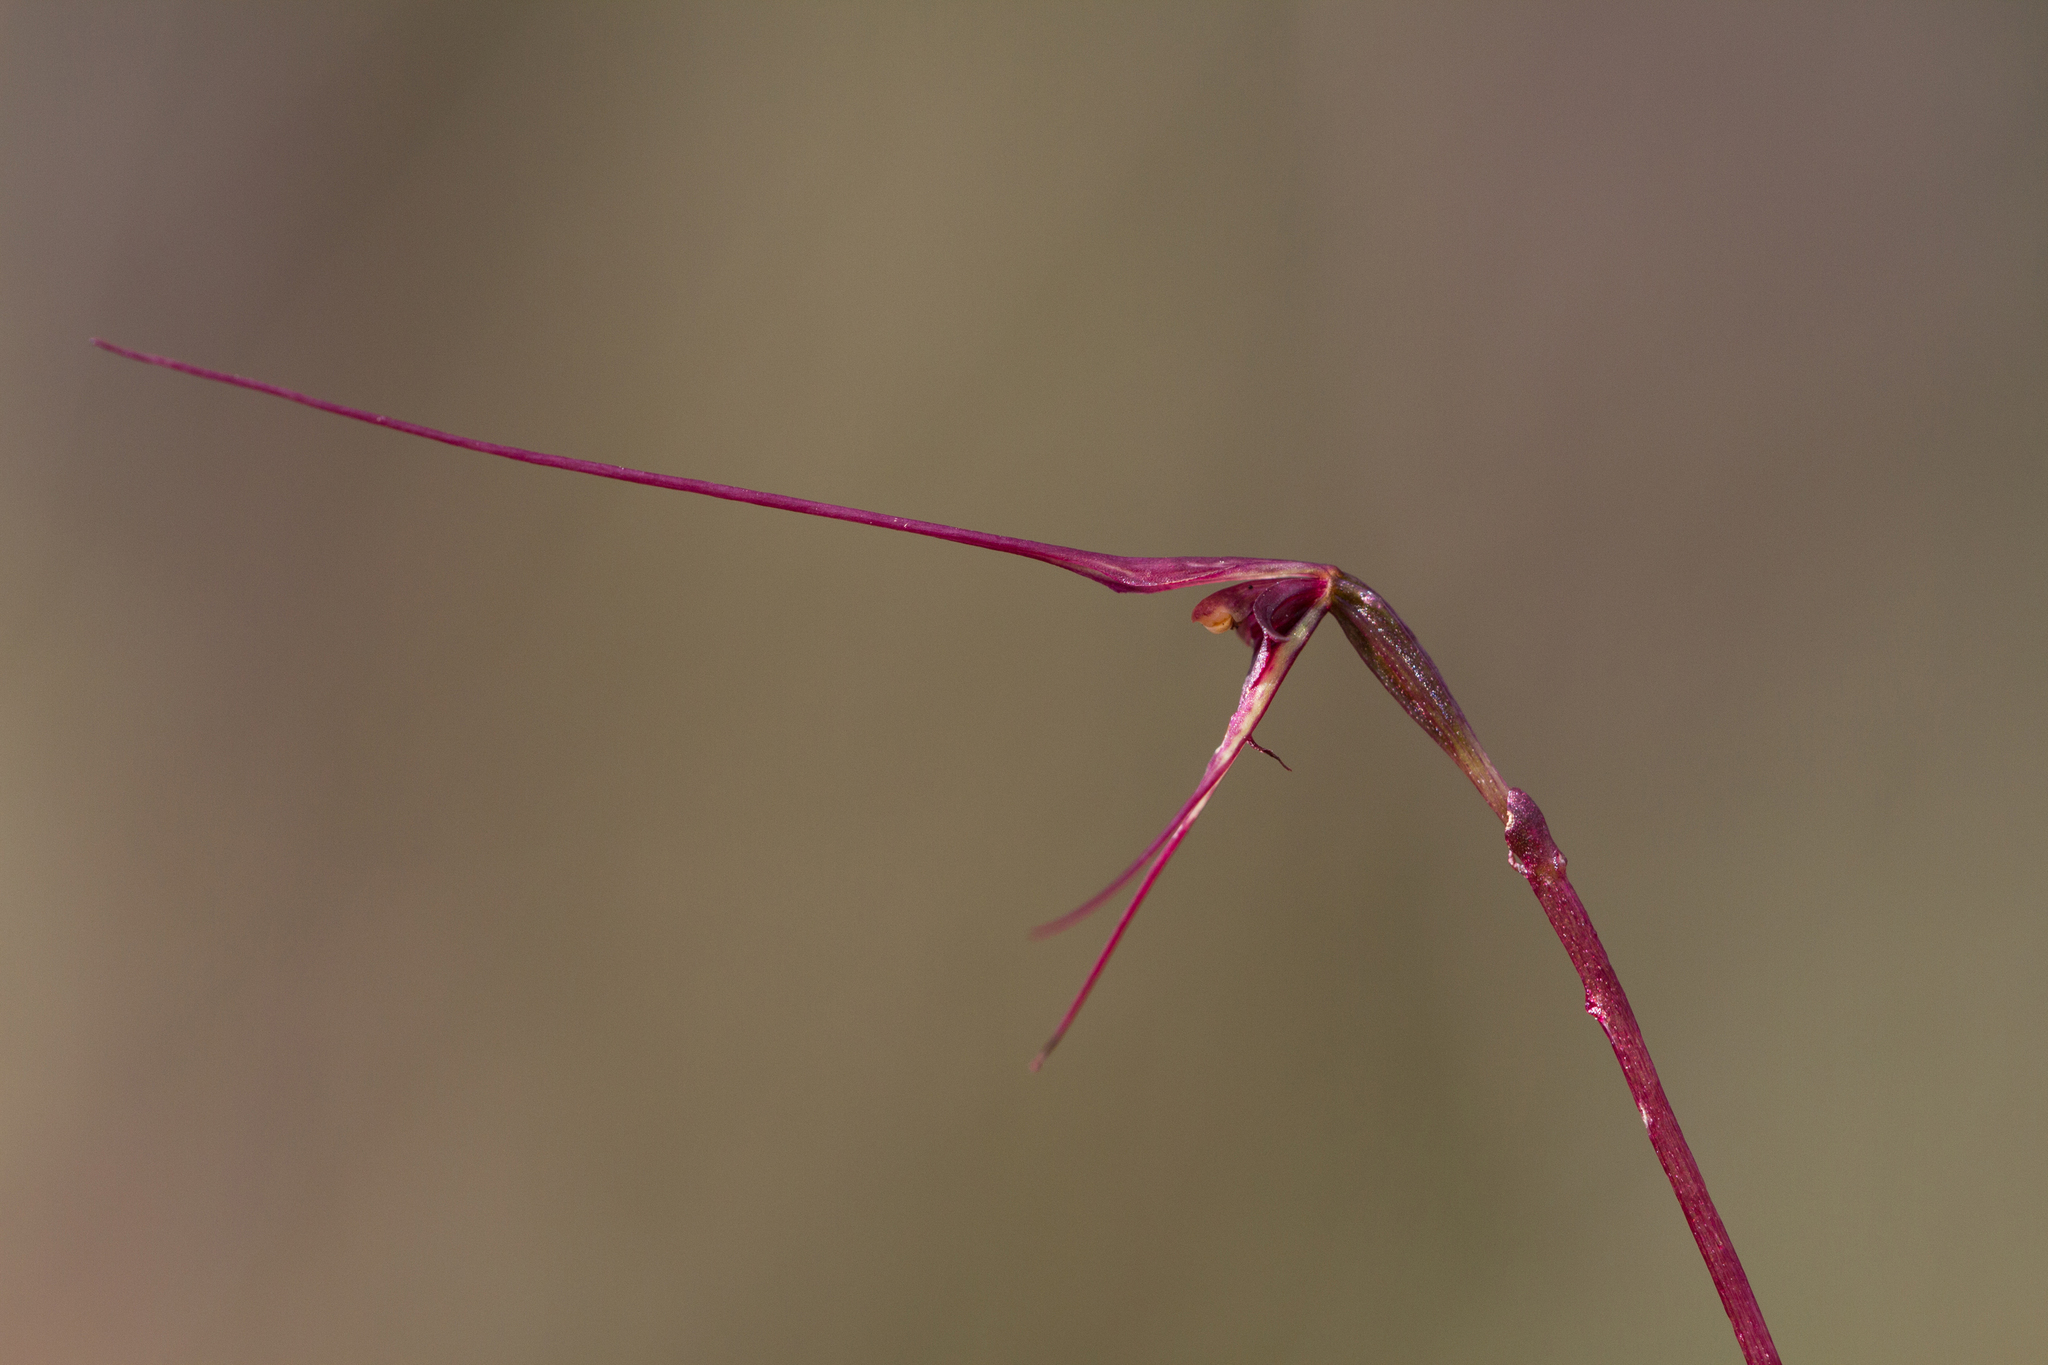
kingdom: Plantae
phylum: Tracheophyta
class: Liliopsida
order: Asparagales
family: Orchidaceae
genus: Acianthus
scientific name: Acianthus caudatus
